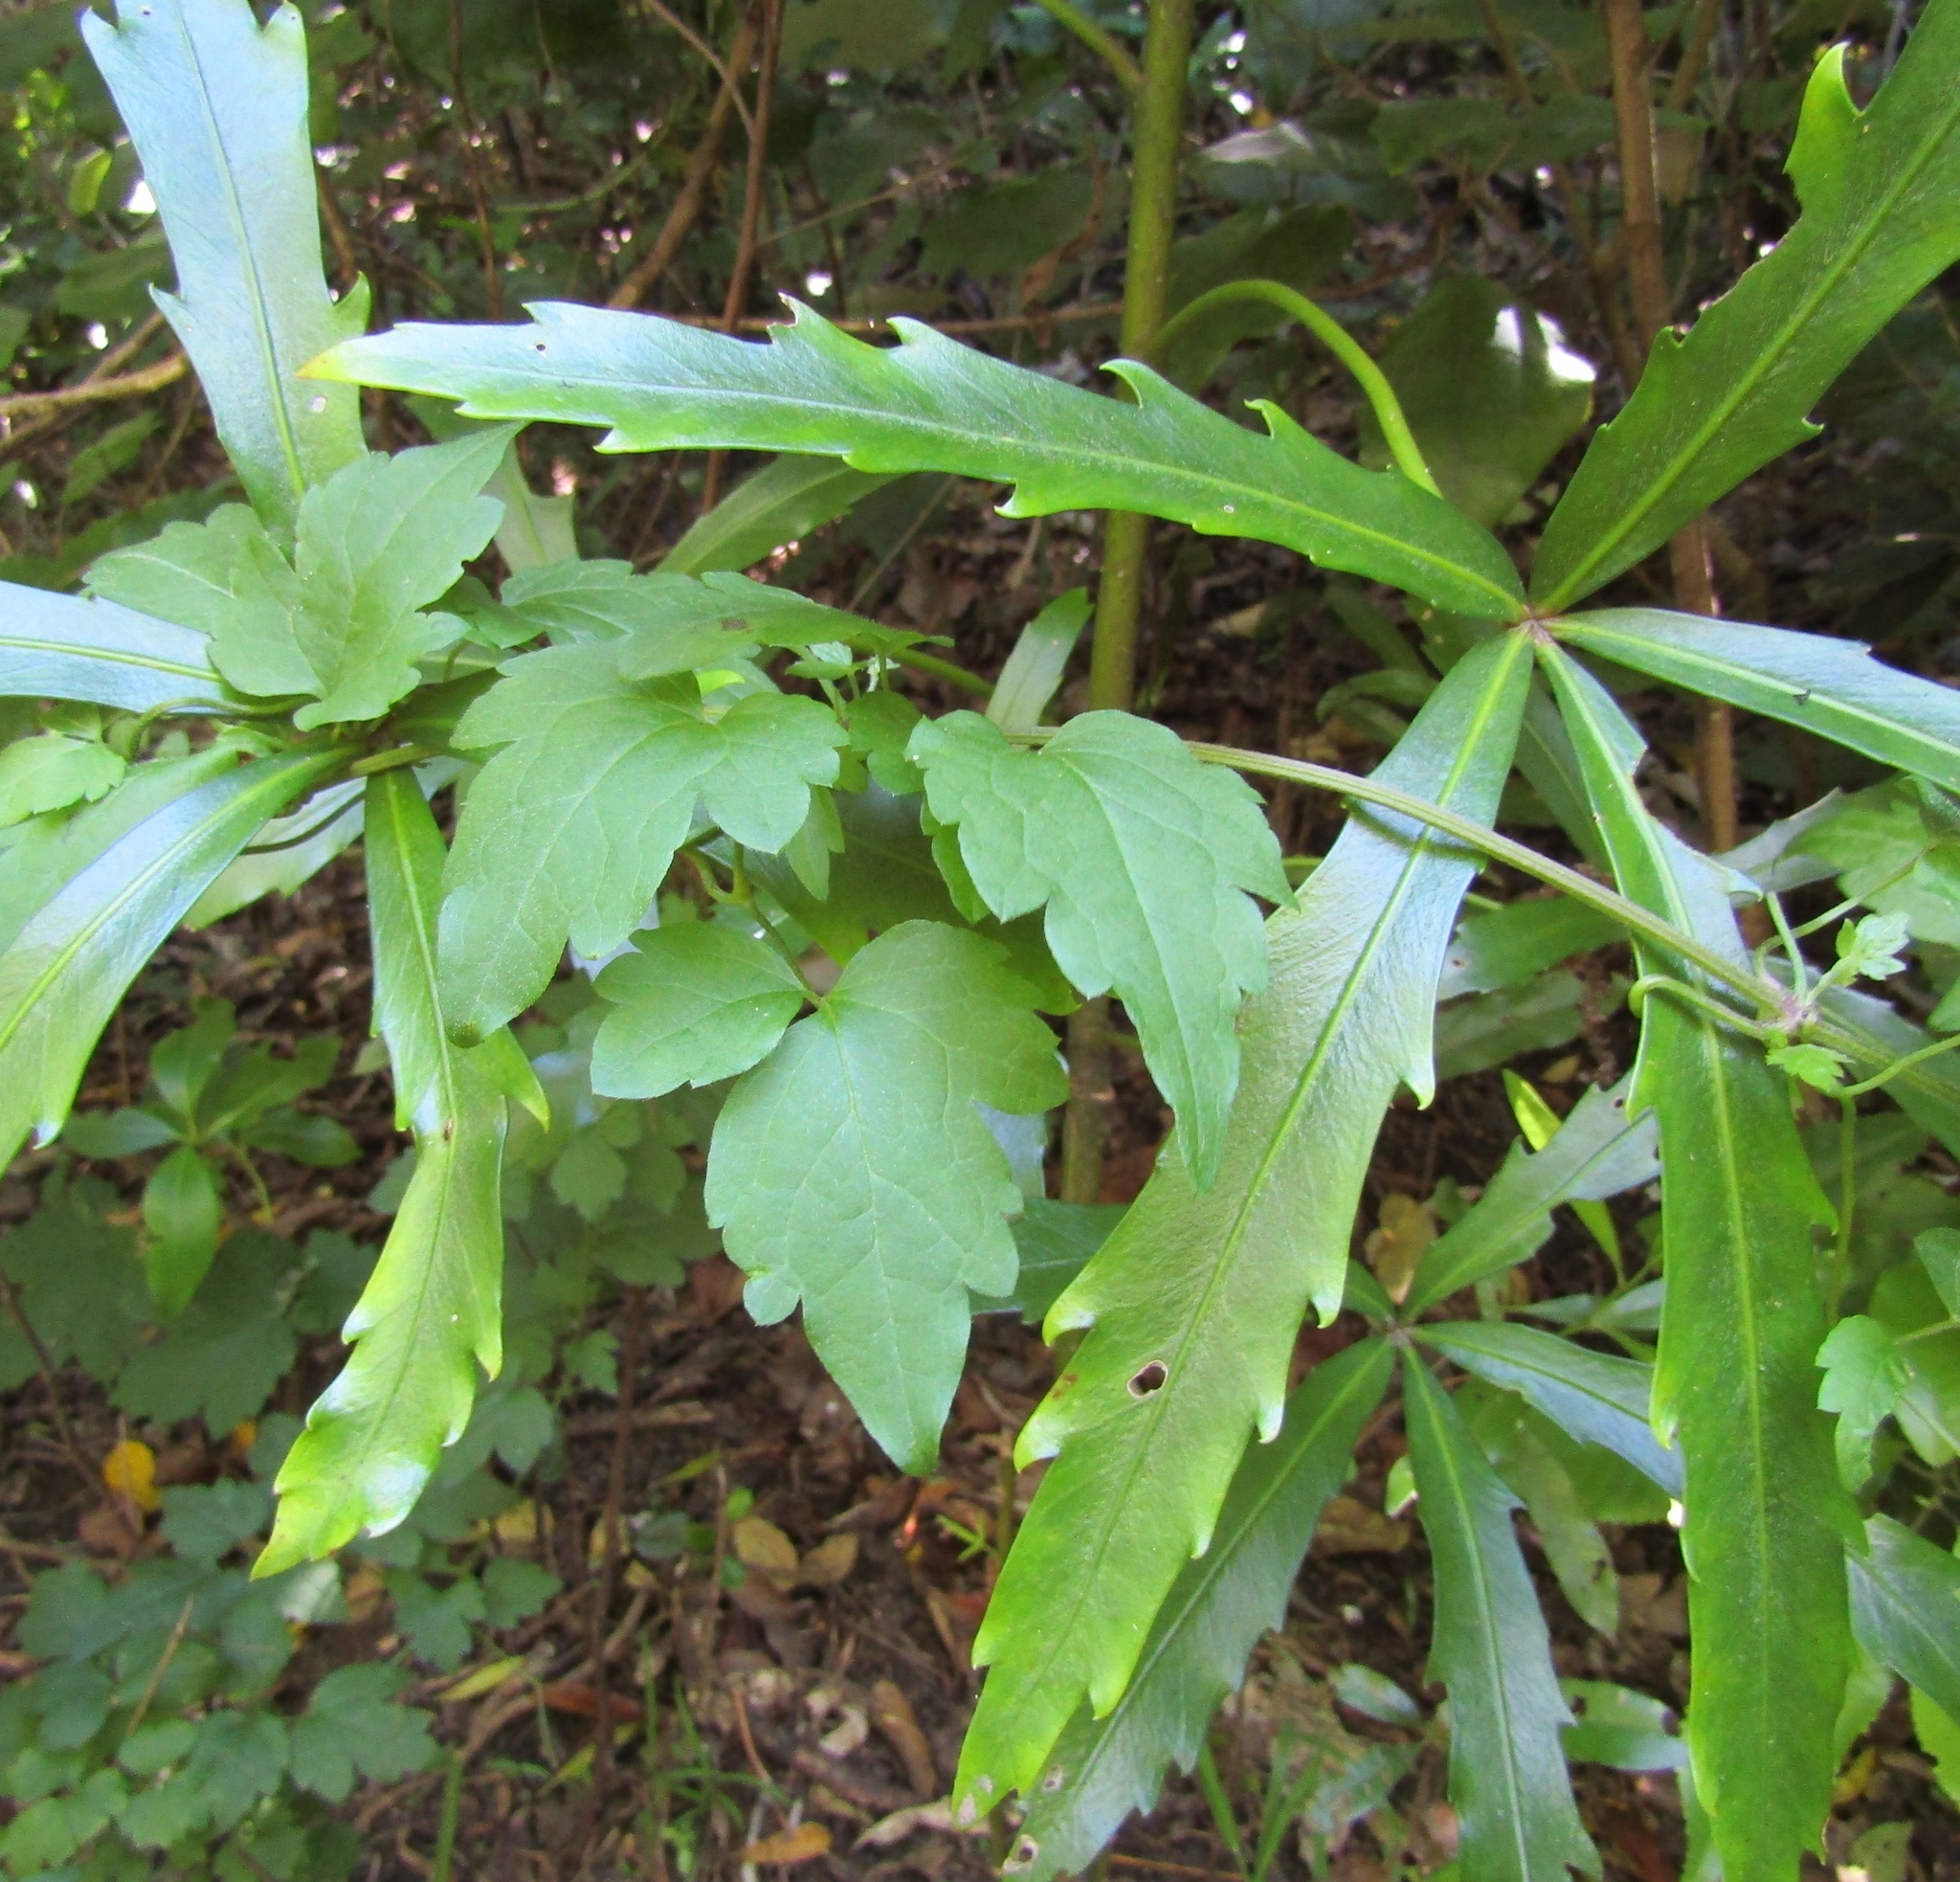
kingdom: Plantae
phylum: Tracheophyta
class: Magnoliopsida
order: Ranunculales
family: Ranunculaceae
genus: Clematis
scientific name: Clematis vitalba
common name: Evergreen clematis
